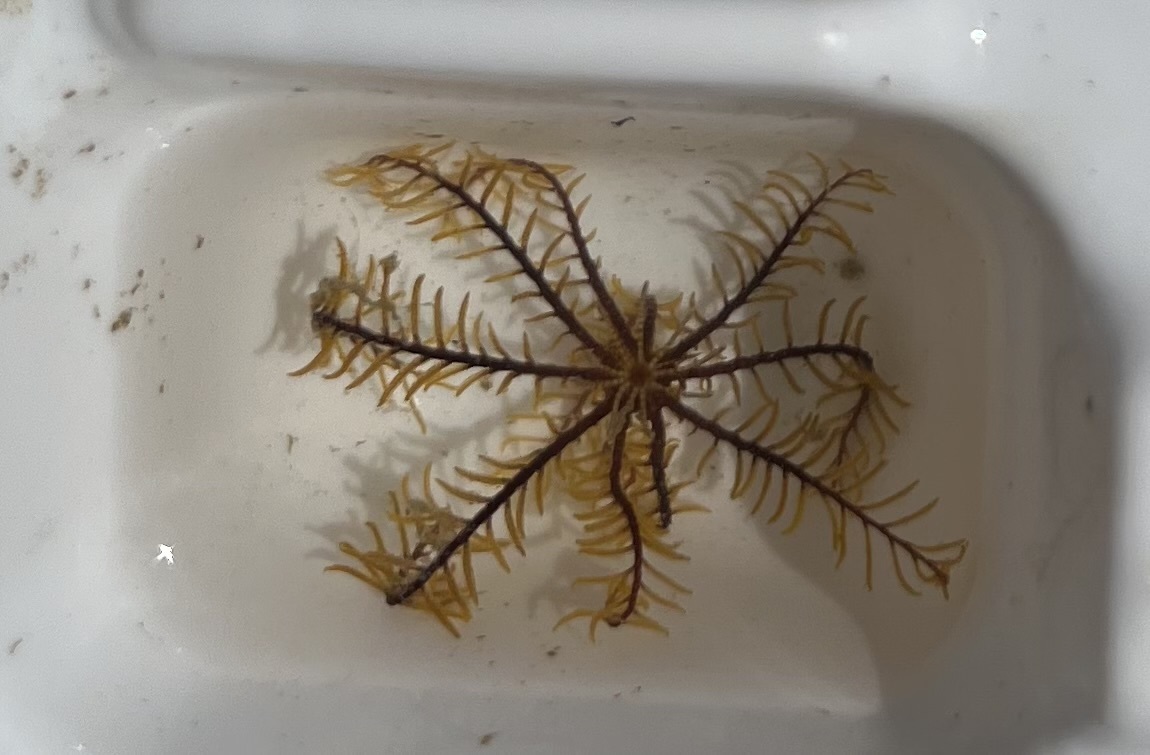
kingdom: Animalia
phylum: Echinodermata
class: Crinoidea
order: Comatulida
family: Comatulidae
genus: Cenolia
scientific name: Cenolia trichoptera
